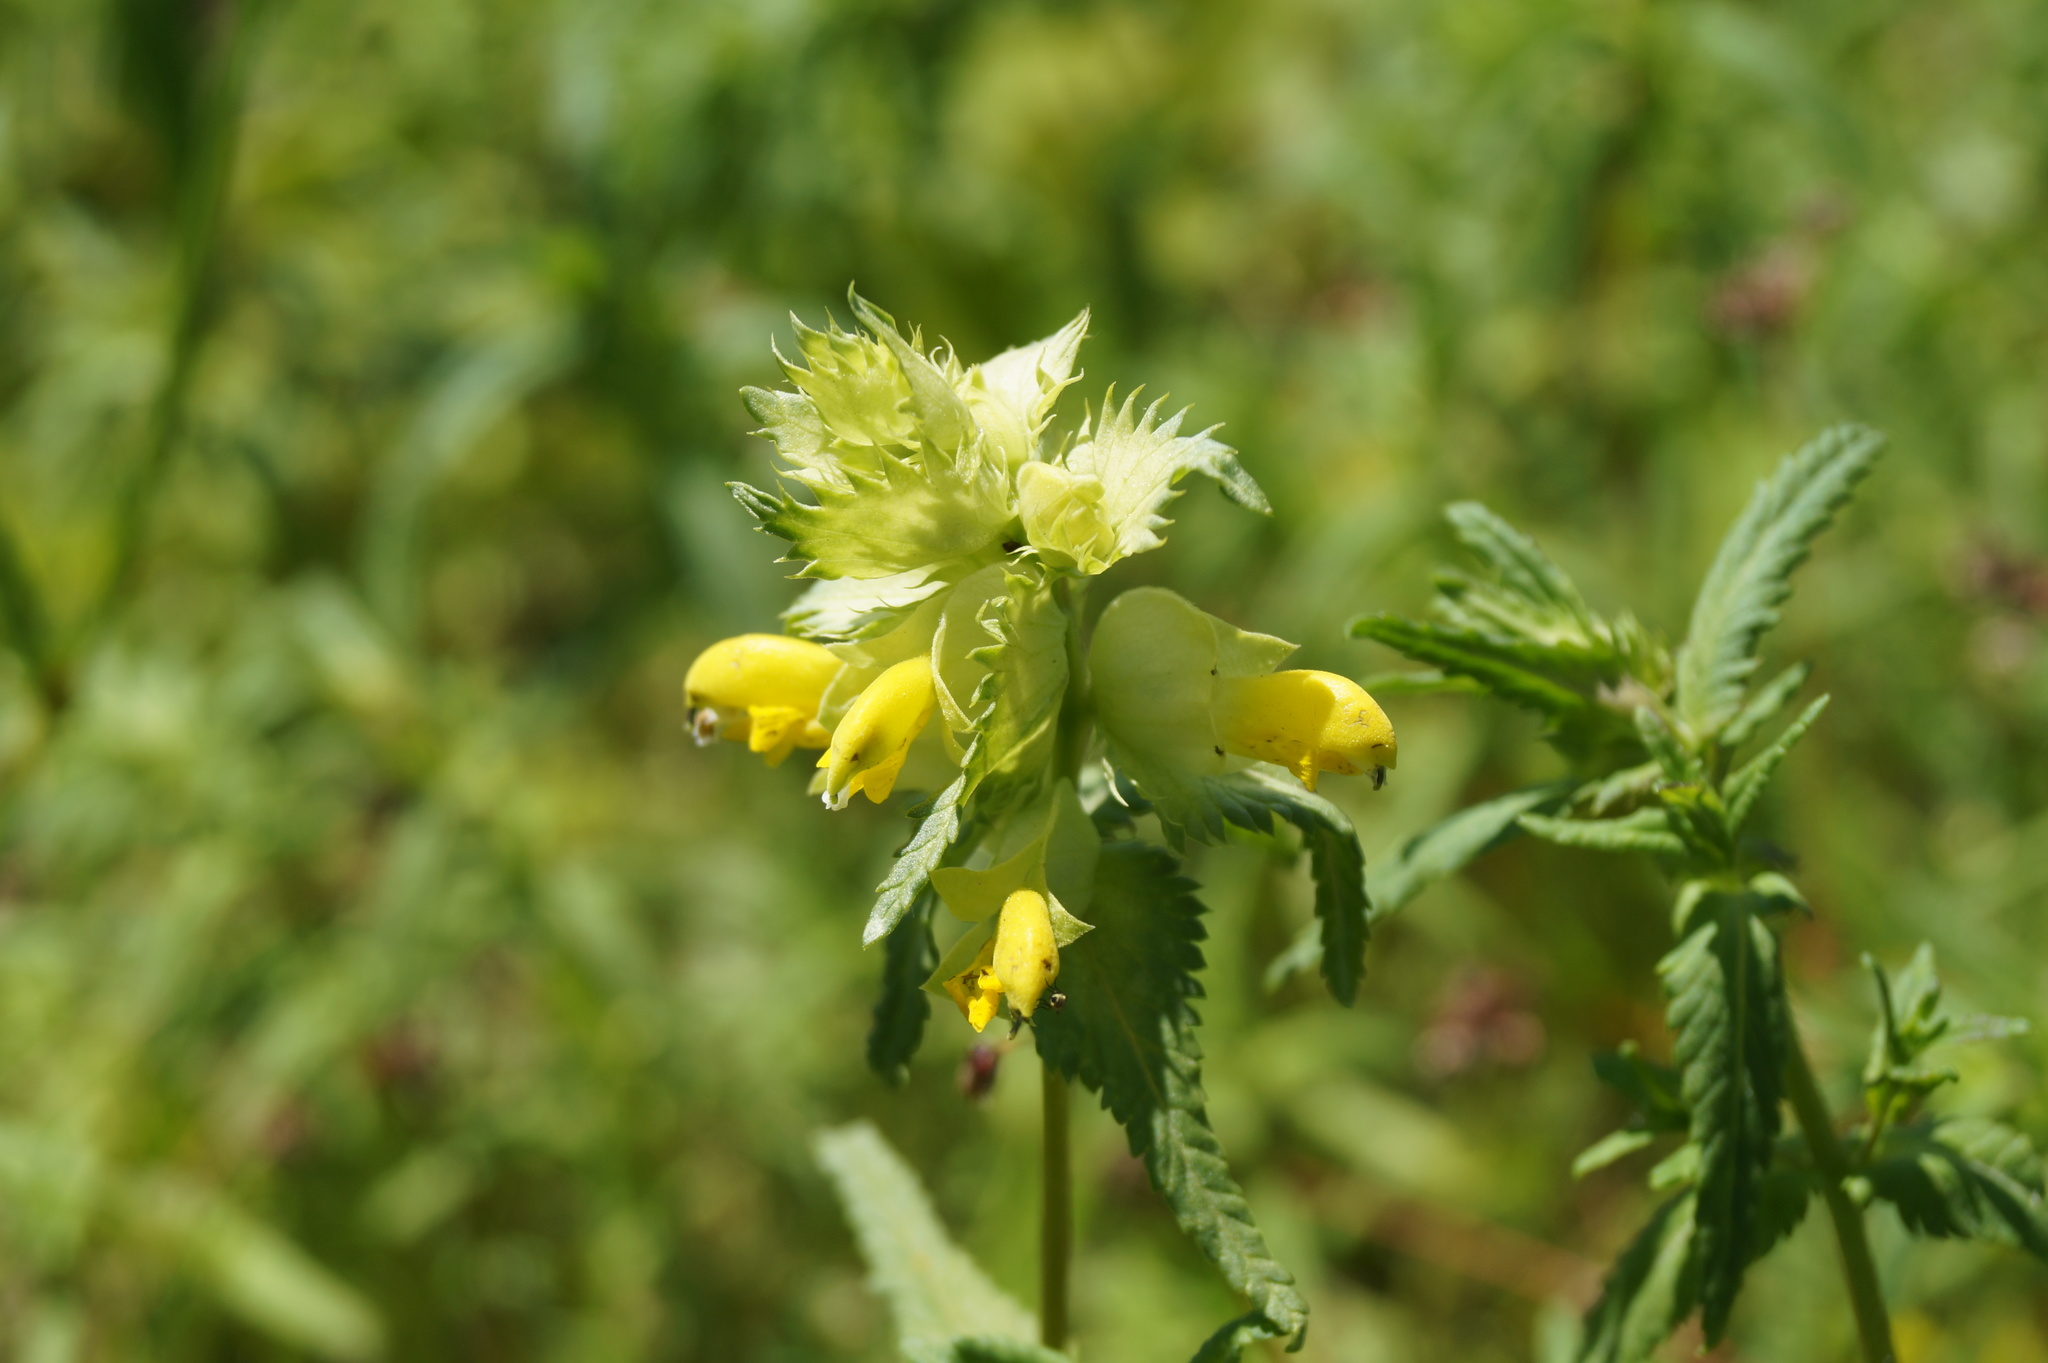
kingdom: Plantae
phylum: Tracheophyta
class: Magnoliopsida
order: Lamiales
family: Orobanchaceae
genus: Rhinanthus
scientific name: Rhinanthus serotinus
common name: Late-flowering yellow rattle
